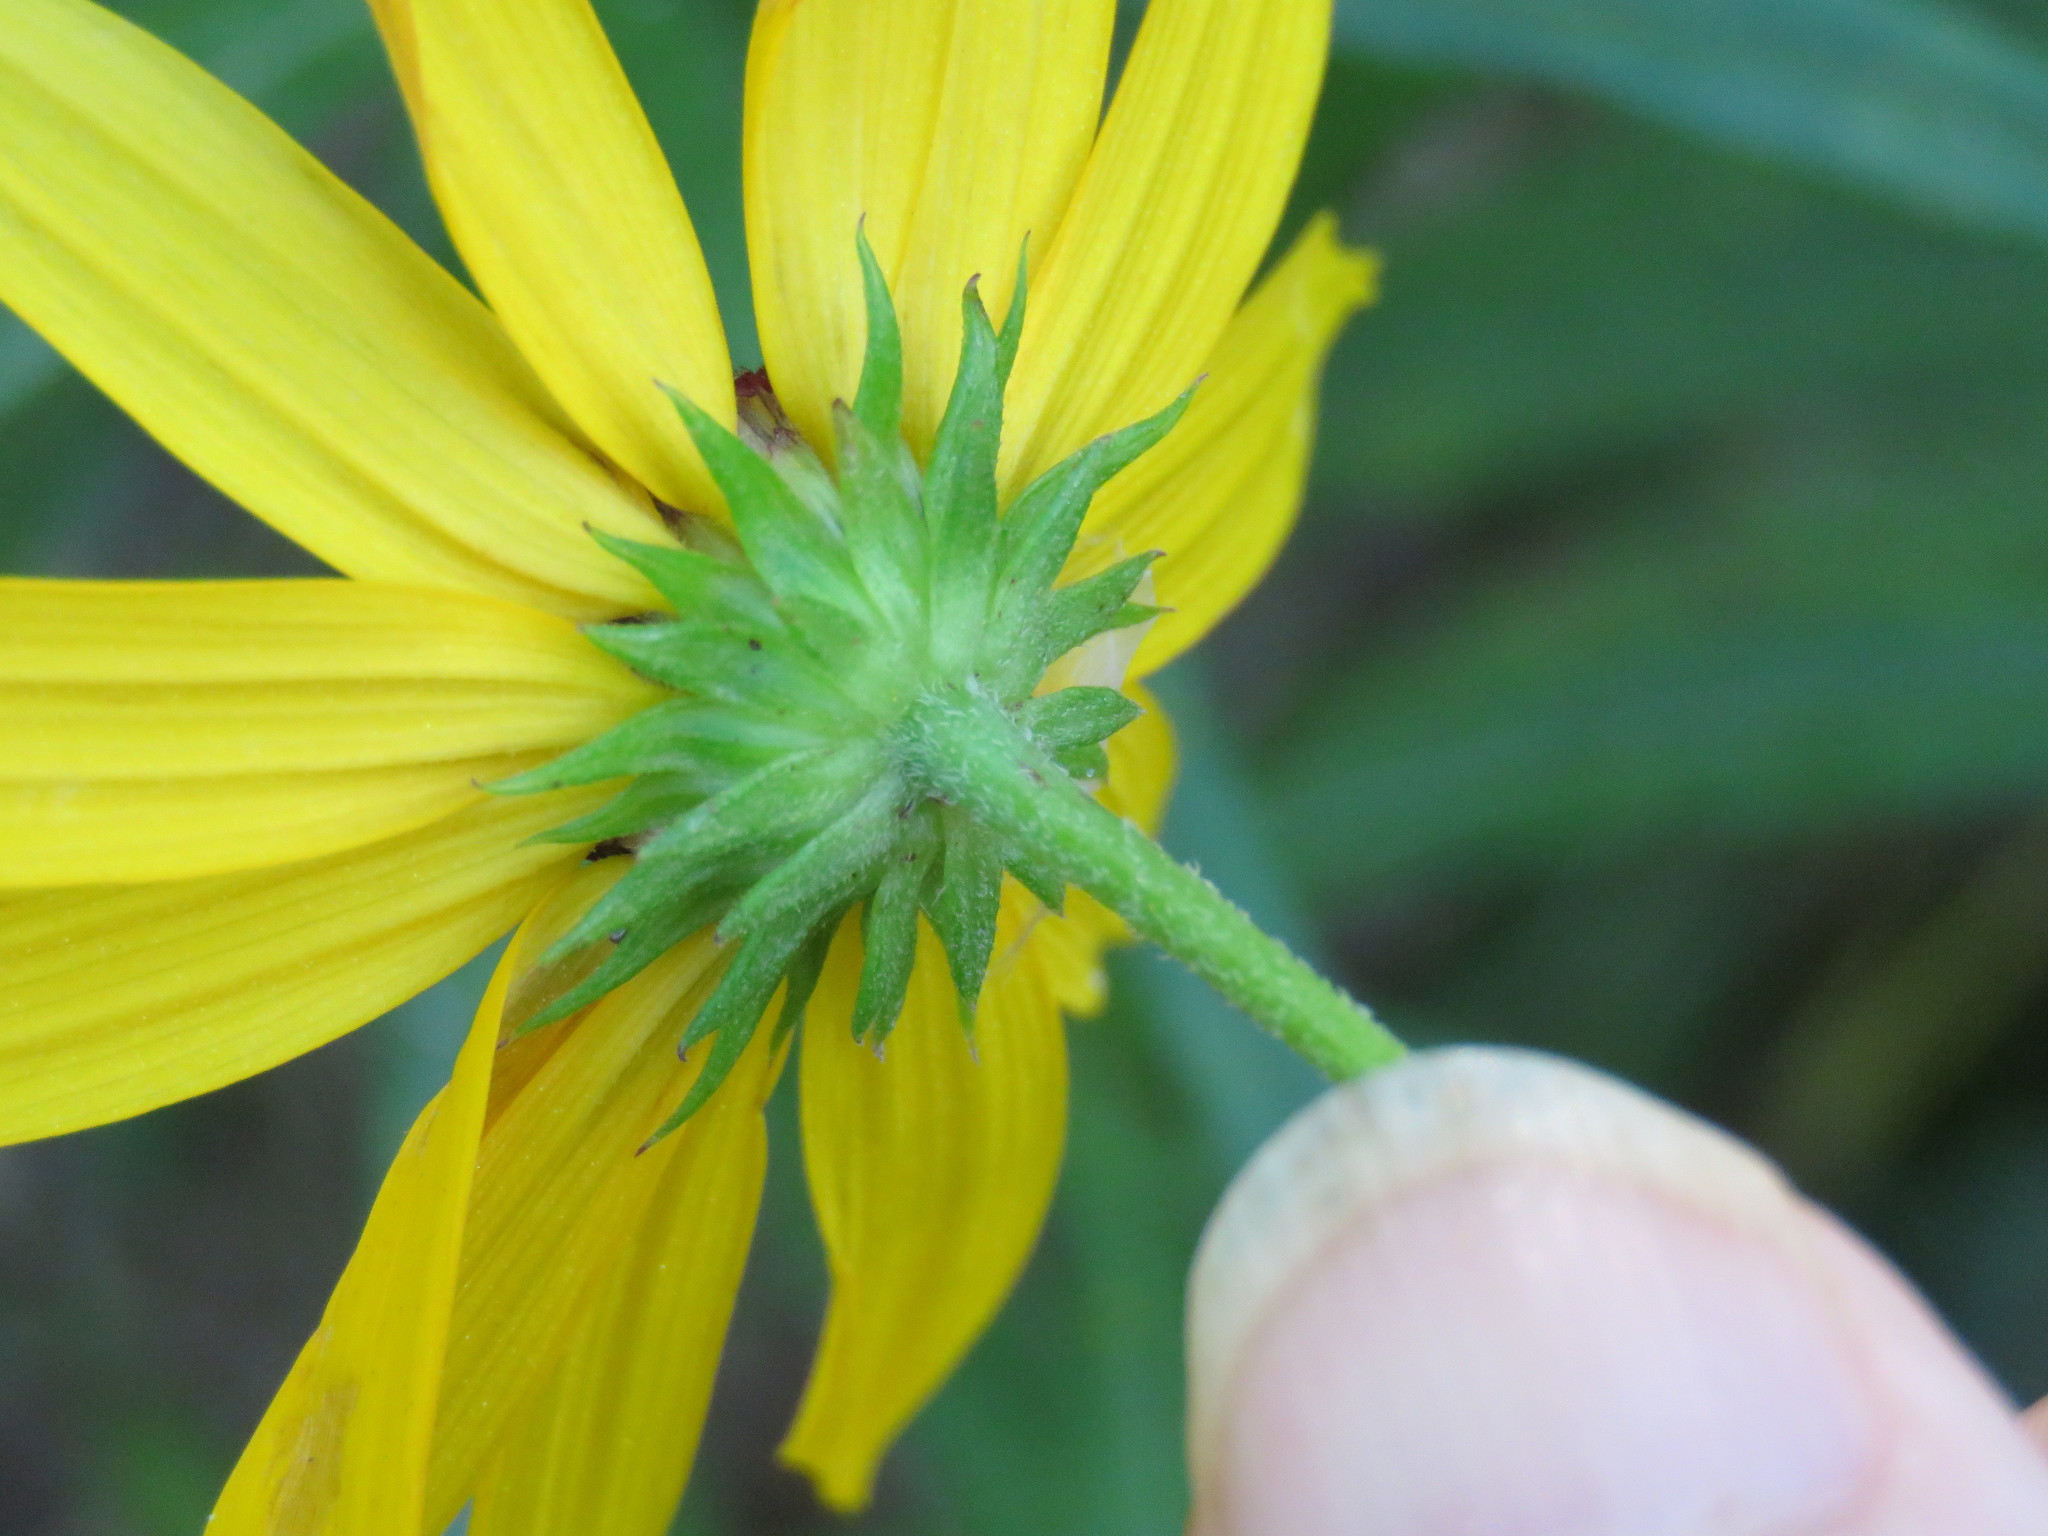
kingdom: Plantae
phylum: Tracheophyta
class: Magnoliopsida
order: Asterales
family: Asteraceae
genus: Helianthus
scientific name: Helianthus angustifolius
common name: Swamp sunflower
